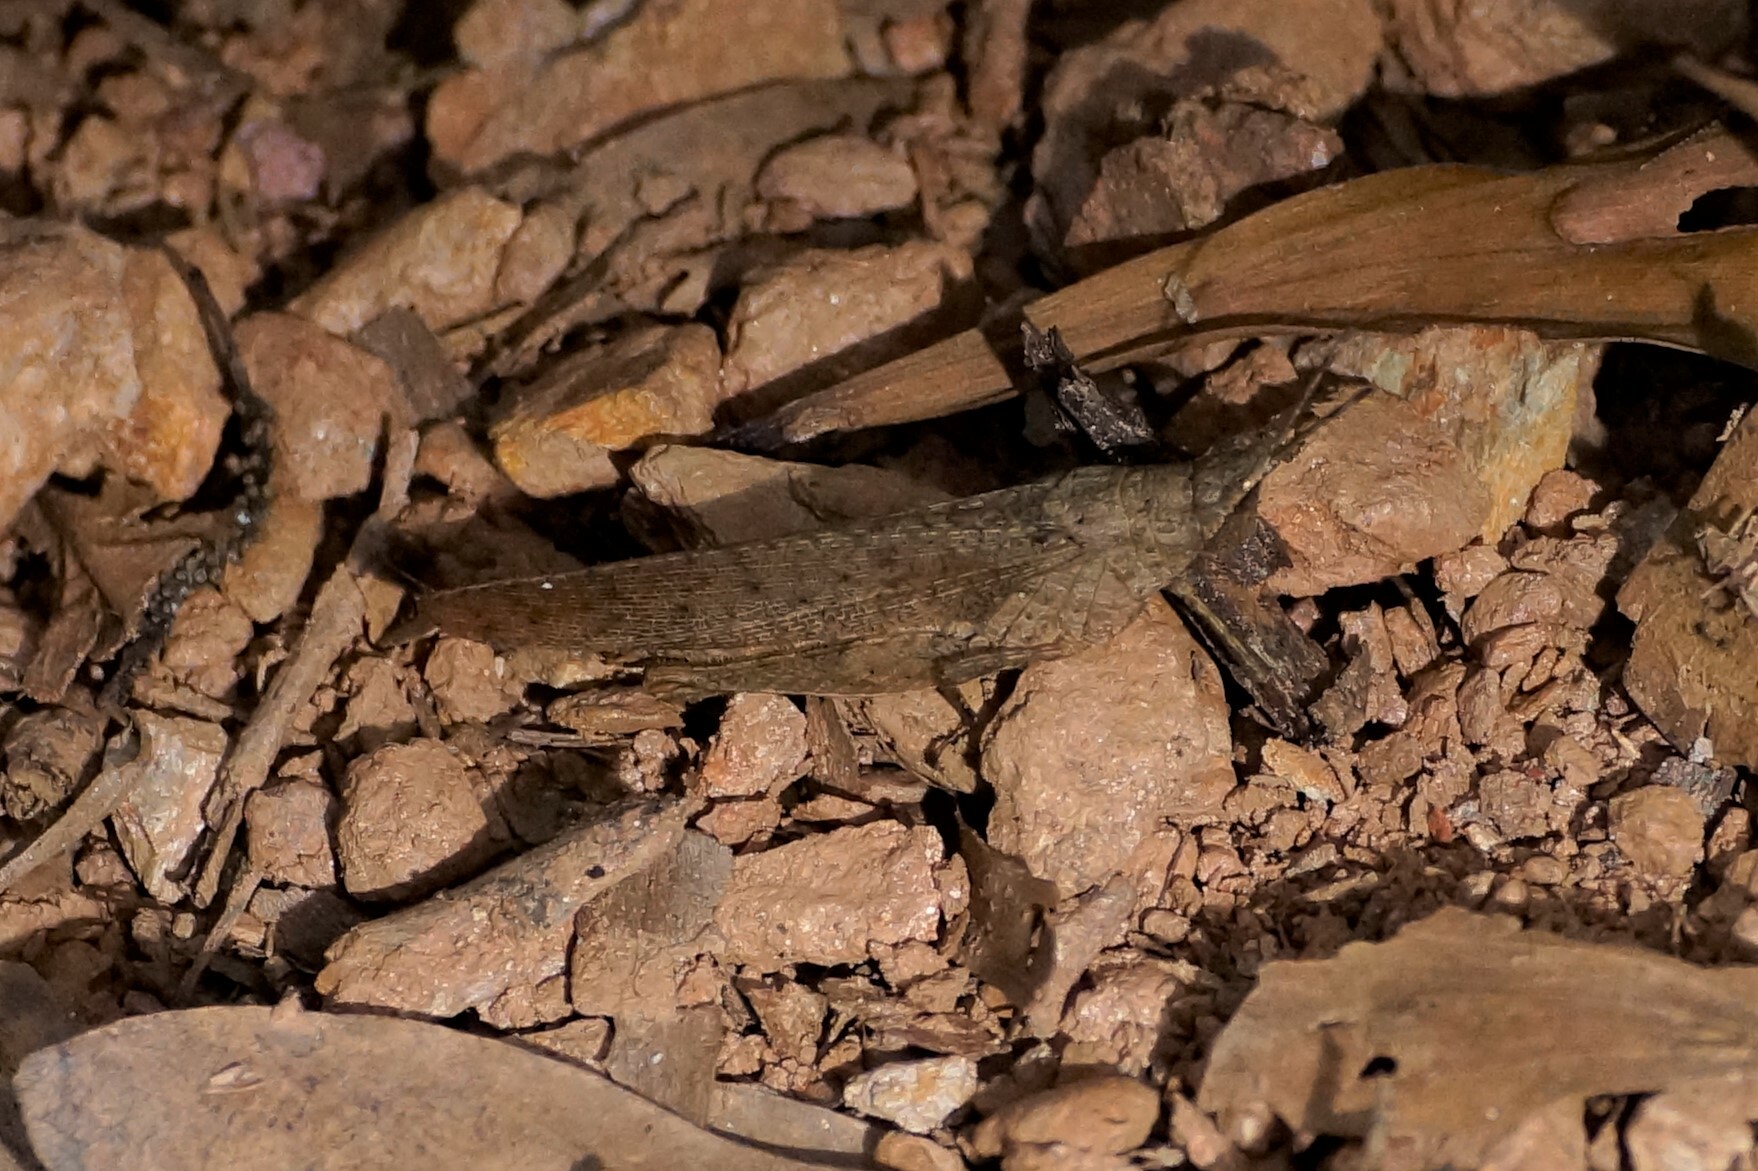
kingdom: Animalia
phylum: Arthropoda
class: Insecta
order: Orthoptera
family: Pyrgomorphidae
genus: Desmoptera
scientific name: Desmoptera truncatipennis
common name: Large forest pyrgomorph
